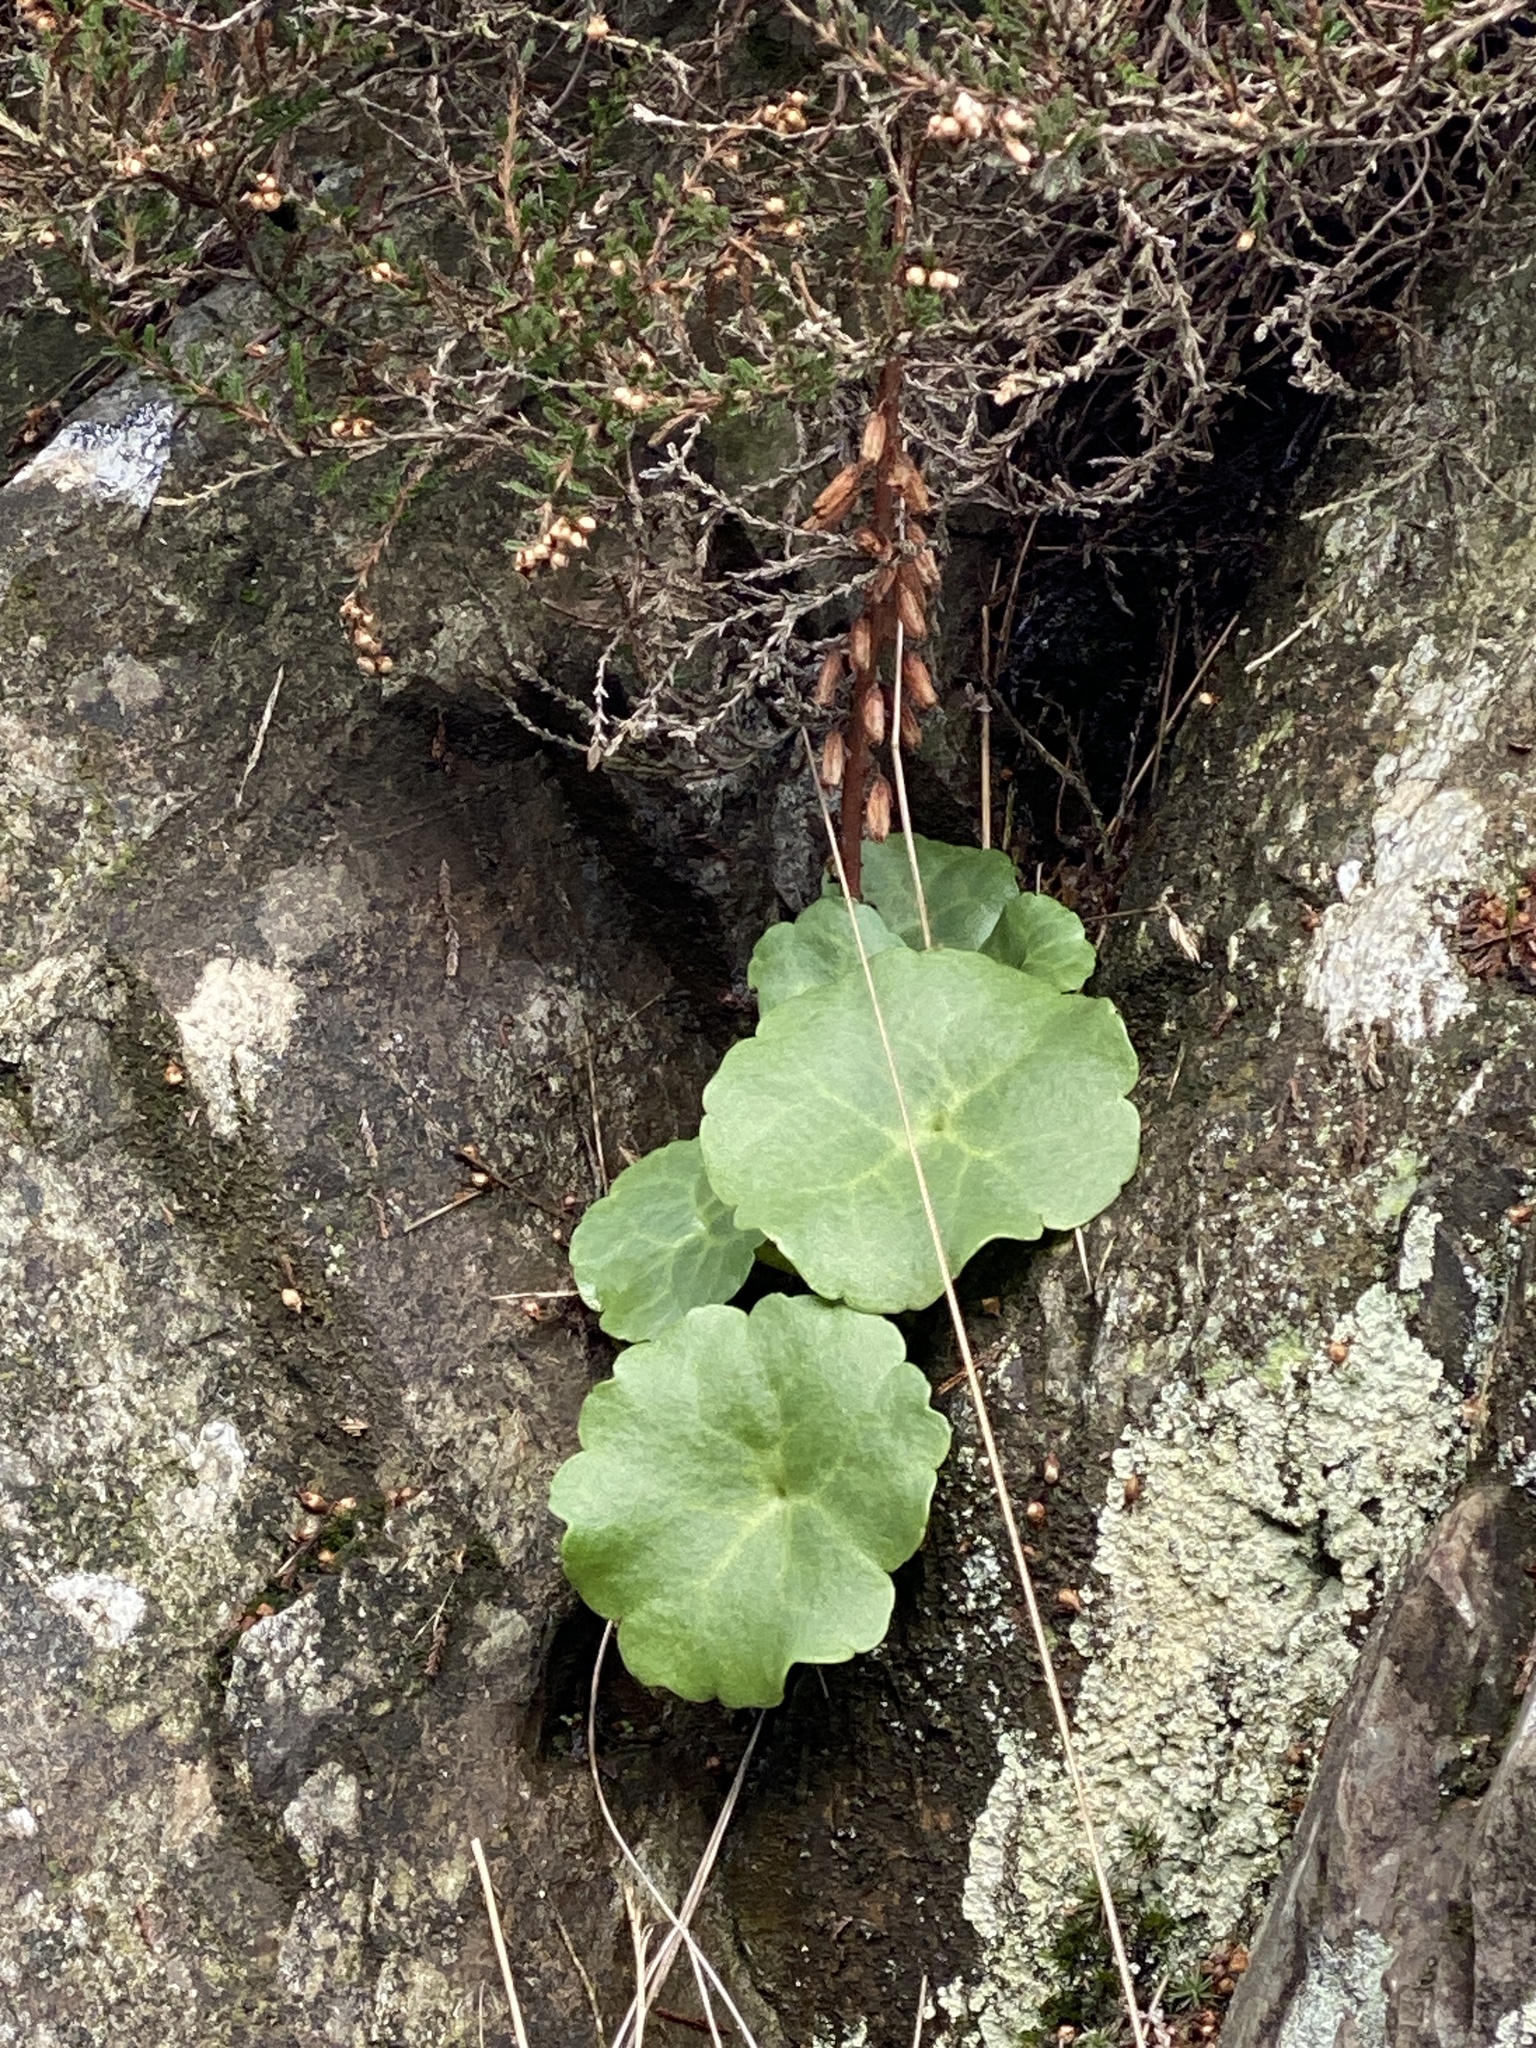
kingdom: Plantae
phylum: Tracheophyta
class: Magnoliopsida
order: Saxifragales
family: Crassulaceae
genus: Umbilicus
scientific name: Umbilicus rupestris
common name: Navelwort
